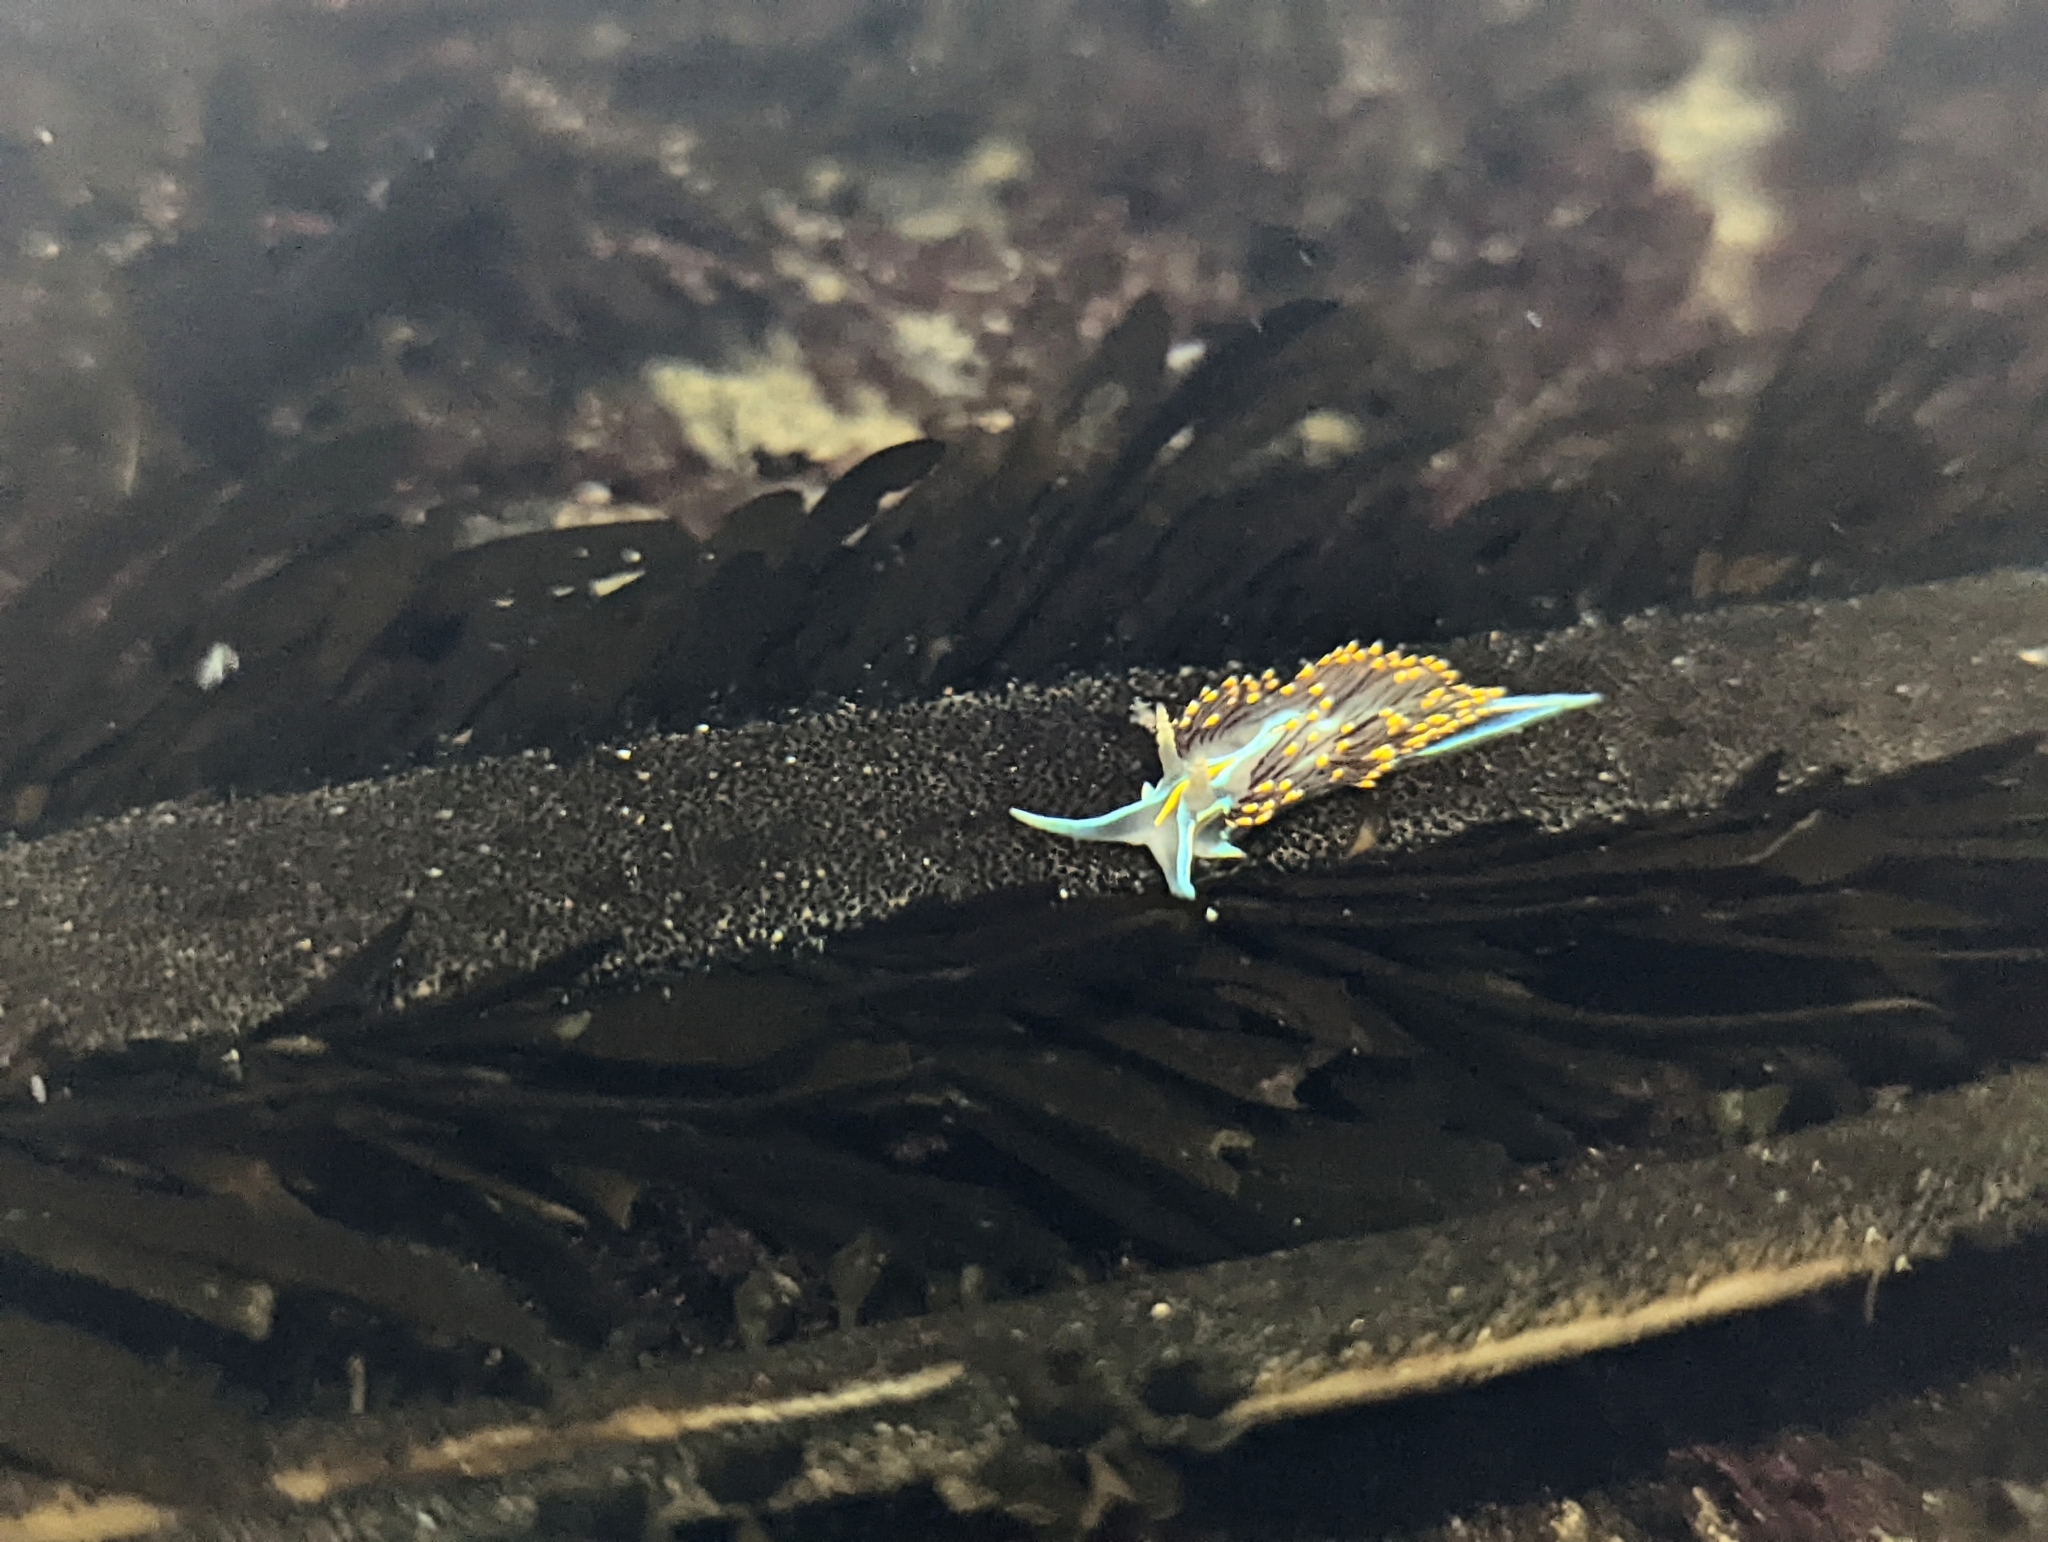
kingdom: Animalia
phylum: Mollusca
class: Gastropoda
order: Nudibranchia
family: Myrrhinidae
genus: Hermissenda
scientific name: Hermissenda opalescens
